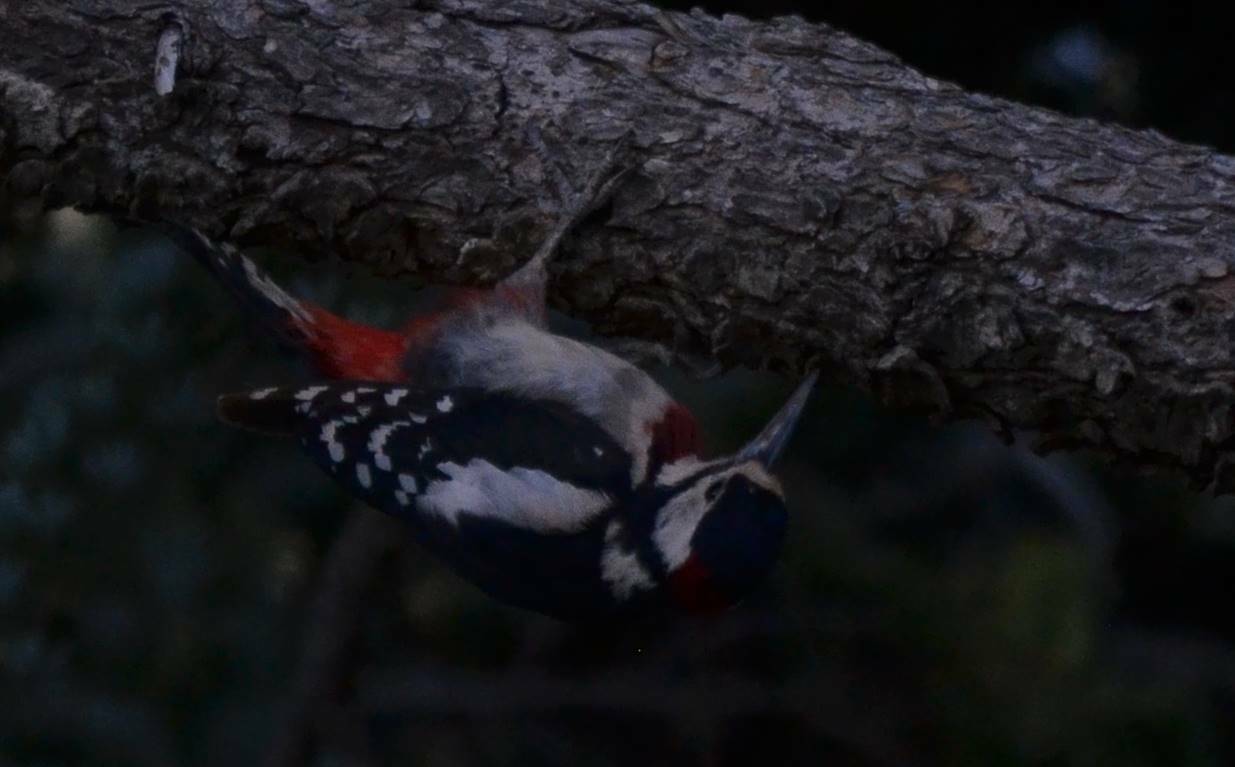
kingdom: Animalia
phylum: Chordata
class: Aves
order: Piciformes
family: Picidae
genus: Dendrocopos
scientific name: Dendrocopos major
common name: Great spotted woodpecker
